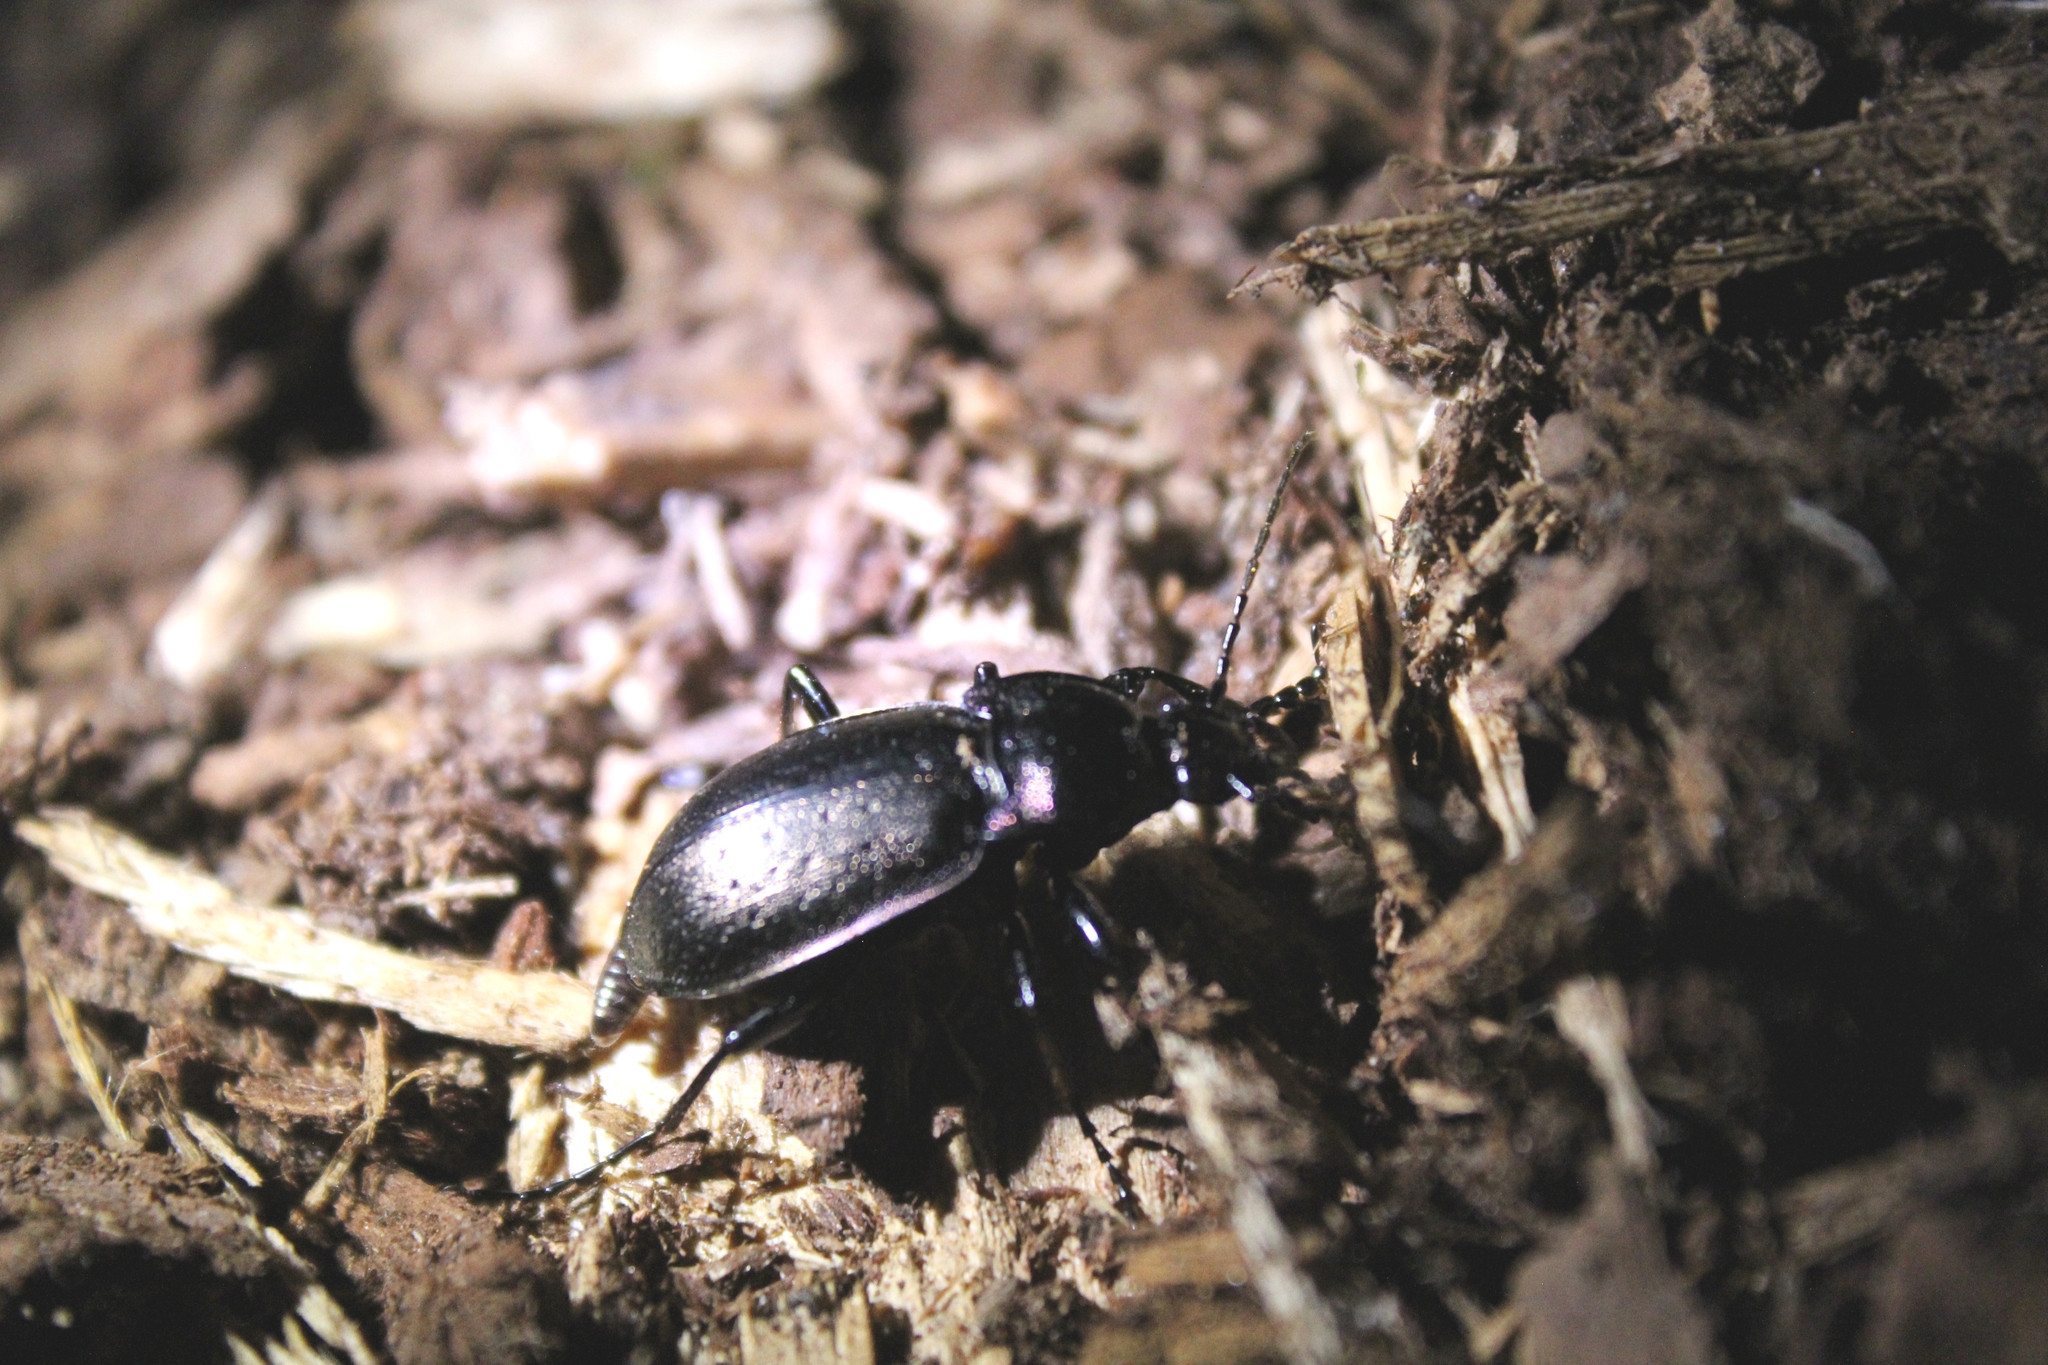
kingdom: Animalia
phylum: Arthropoda
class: Insecta
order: Coleoptera
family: Carabidae
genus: Carabus
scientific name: Carabus nemoralis
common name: European ground beetle
